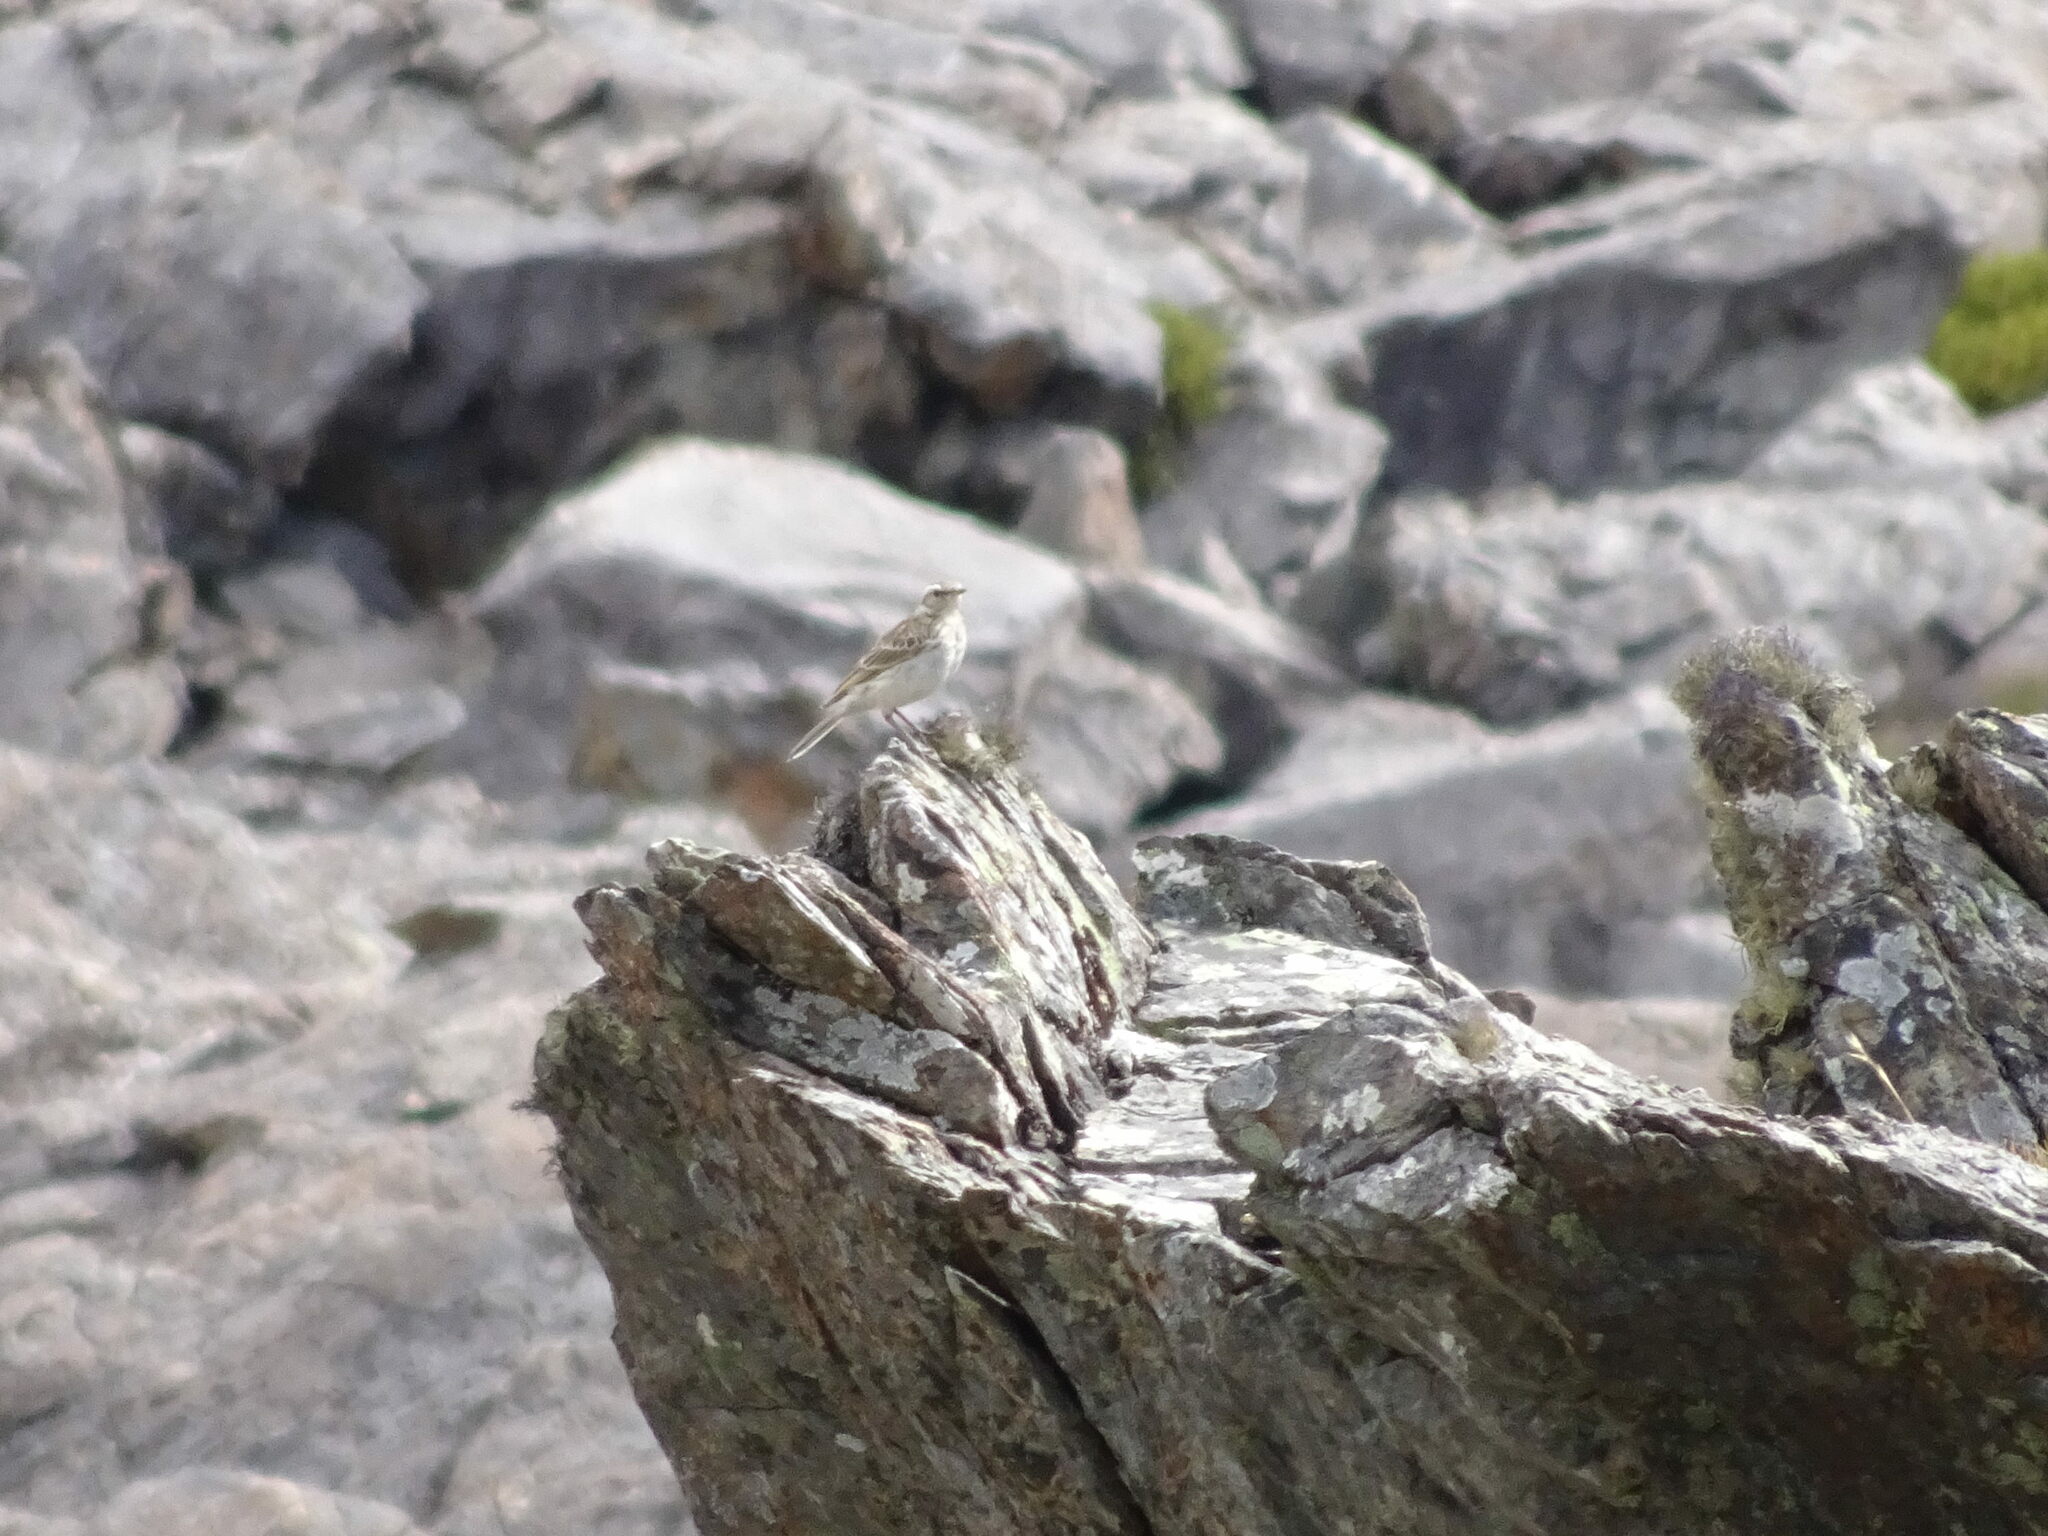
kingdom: Animalia
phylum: Chordata
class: Aves
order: Passeriformes
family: Motacillidae
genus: Anthus
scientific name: Anthus novaeseelandiae
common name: New zealand pipit
